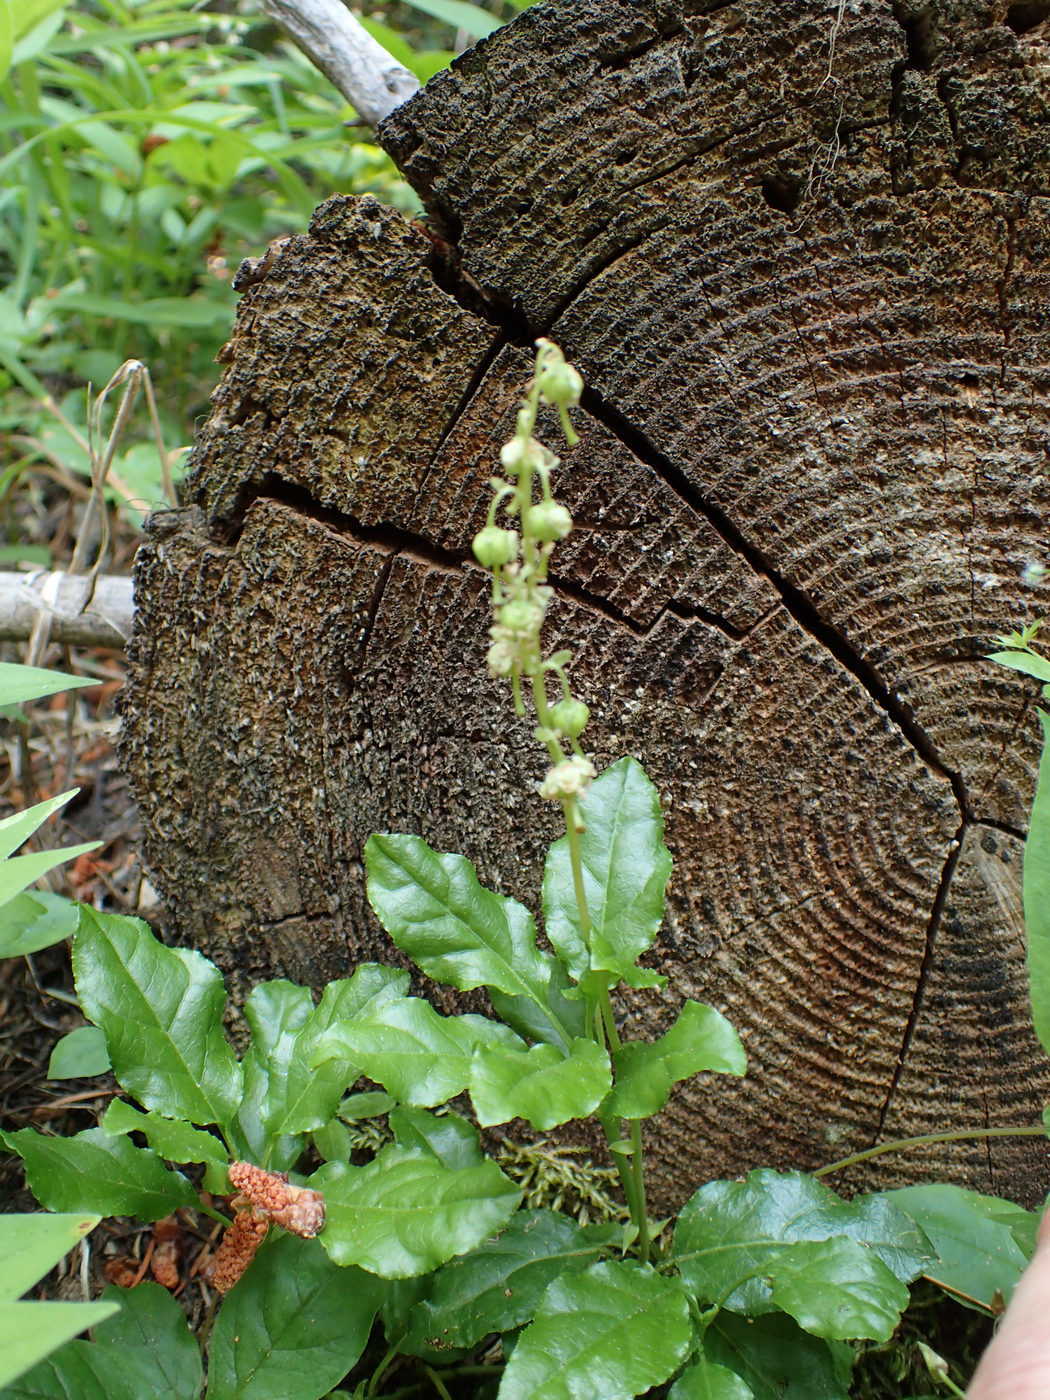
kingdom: Plantae
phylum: Tracheophyta
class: Magnoliopsida
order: Ericales
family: Ericaceae
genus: Orthilia
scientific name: Orthilia secunda
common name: One-sided orthilia
